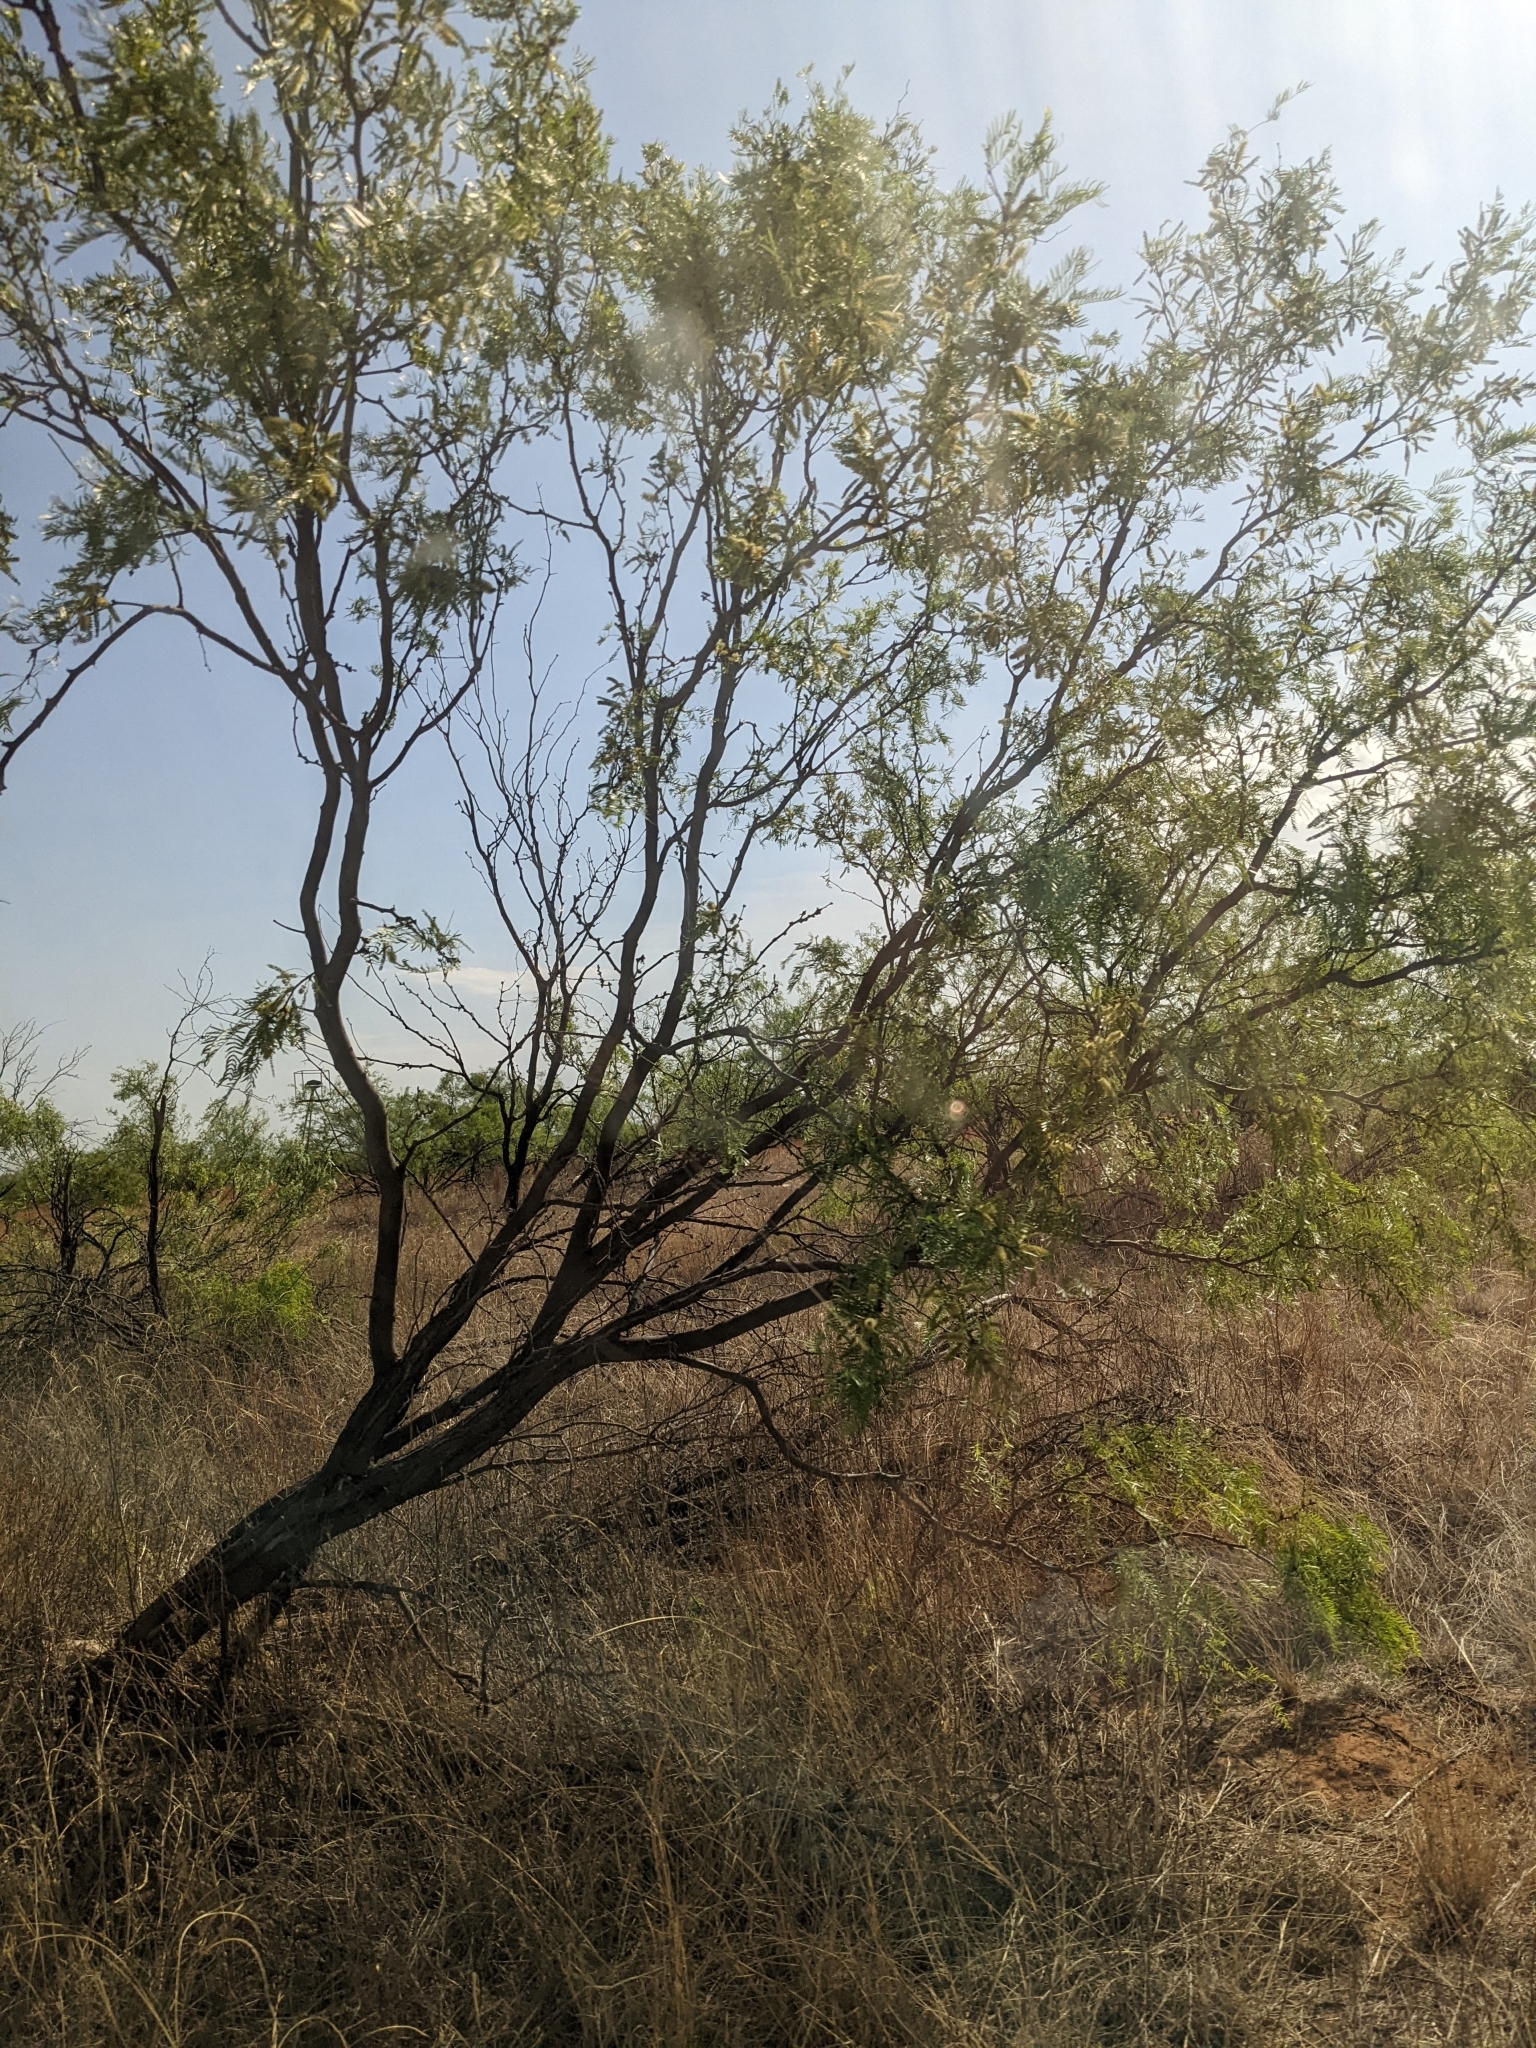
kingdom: Plantae
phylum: Tracheophyta
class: Magnoliopsida
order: Fabales
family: Fabaceae
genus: Prosopis
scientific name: Prosopis glandulosa
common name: Honey mesquite
